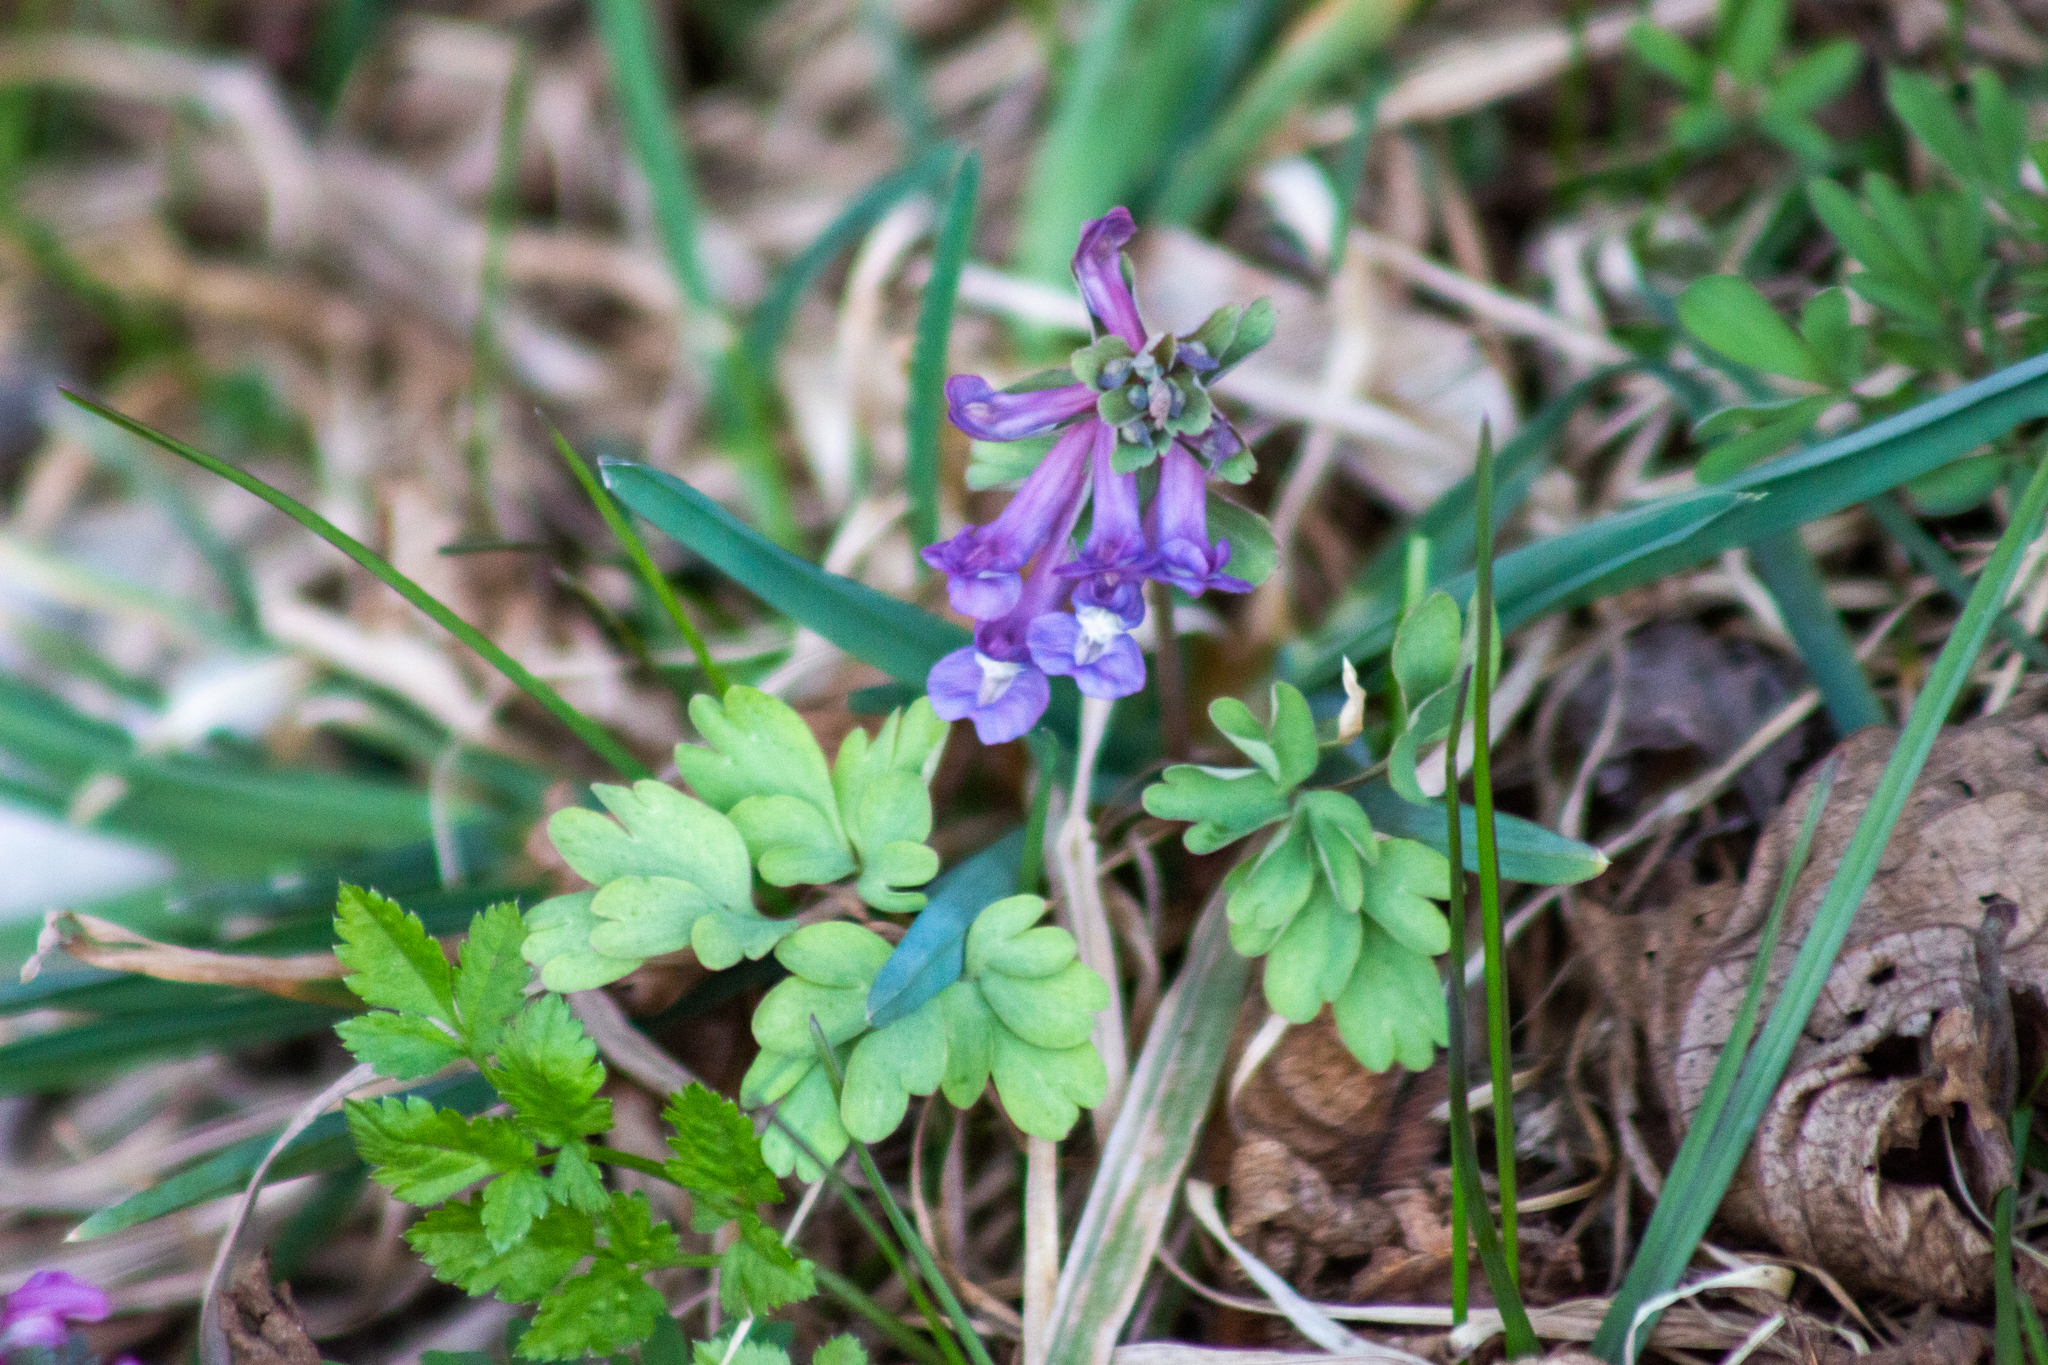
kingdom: Plantae
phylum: Tracheophyta
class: Magnoliopsida
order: Ranunculales
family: Papaveraceae
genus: Corydalis
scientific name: Corydalis solida
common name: Bird-in-a-bush
